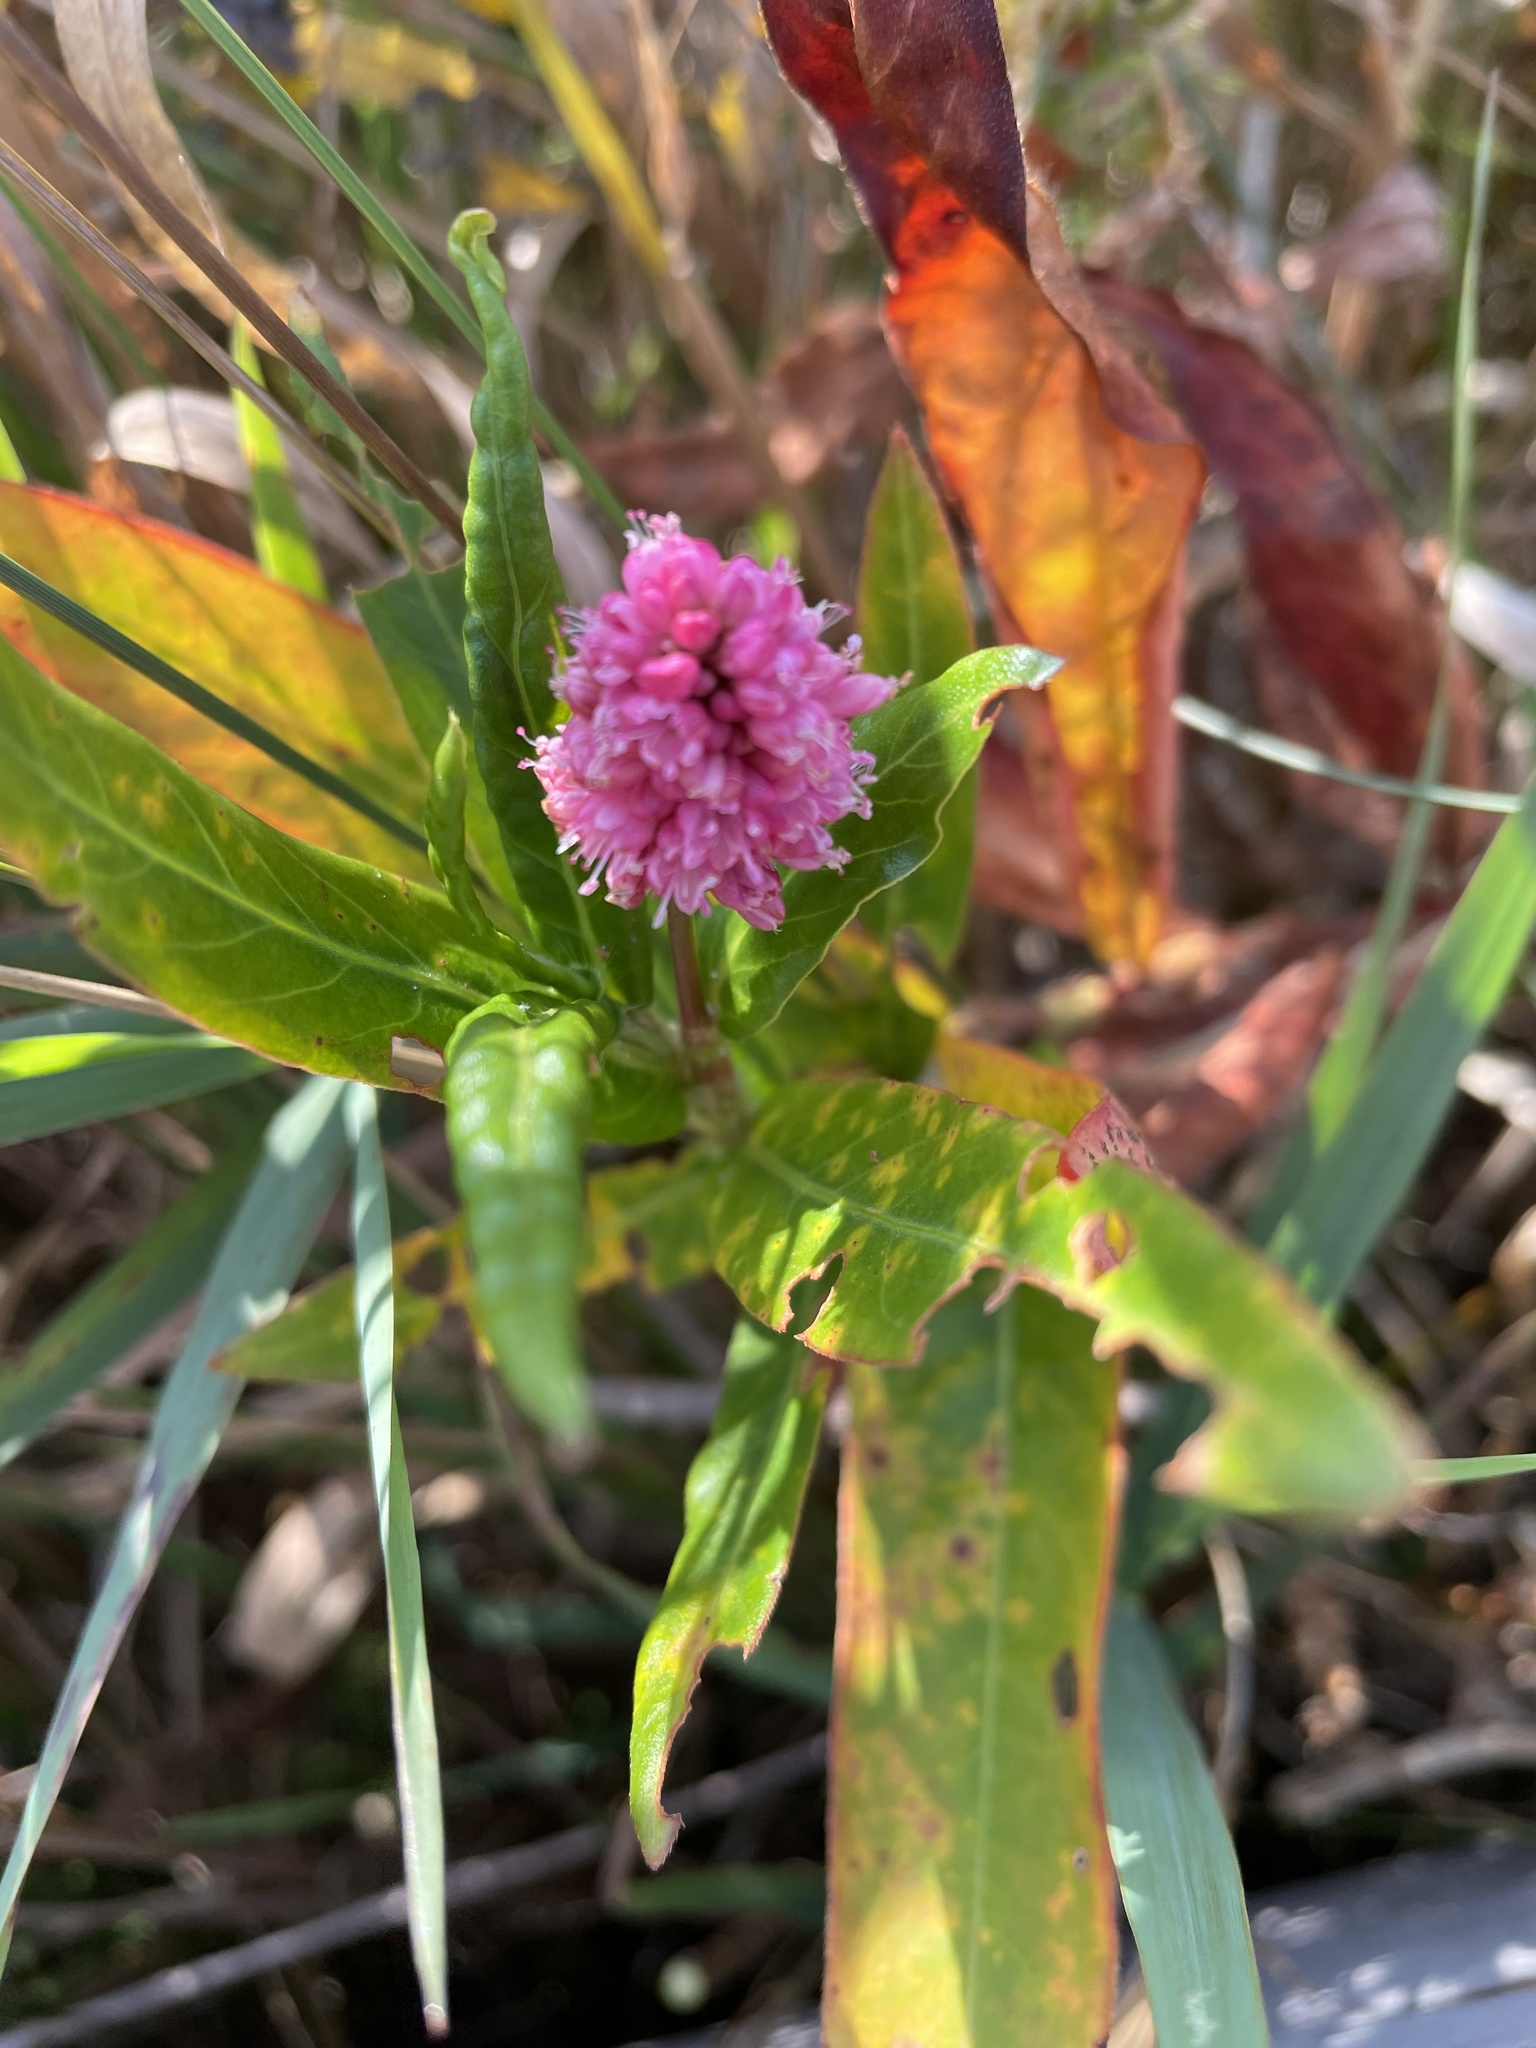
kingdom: Plantae
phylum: Tracheophyta
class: Magnoliopsida
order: Caryophyllales
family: Polygonaceae
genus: Persicaria
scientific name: Persicaria amphibia
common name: Amphibious bistort
